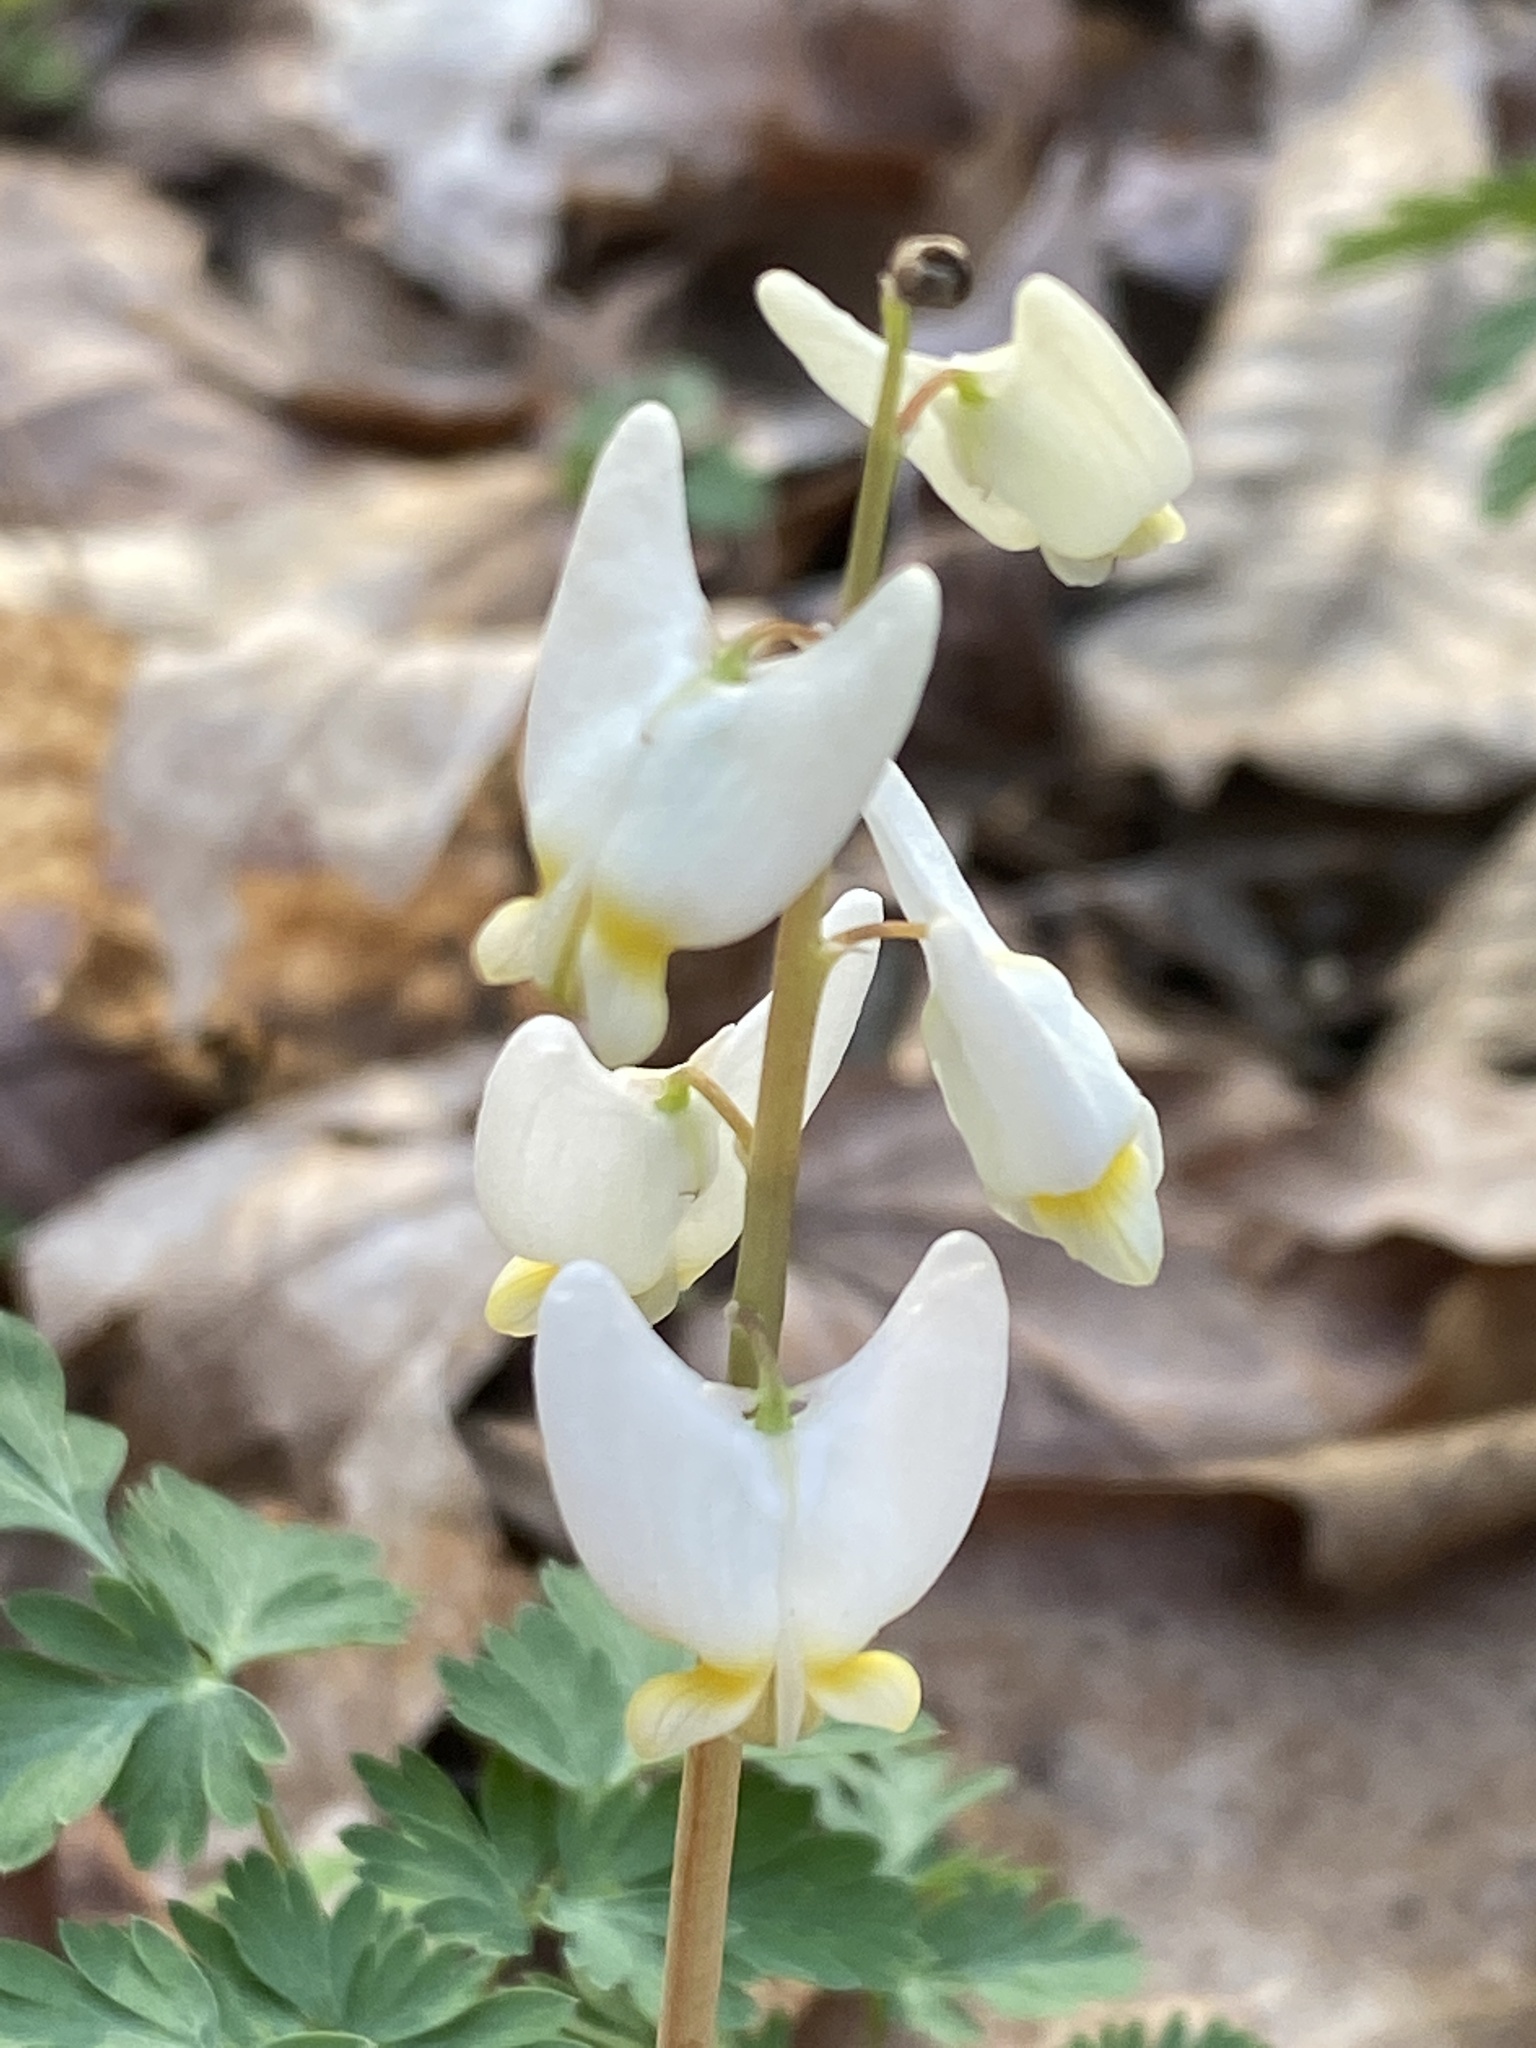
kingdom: Plantae
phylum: Tracheophyta
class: Magnoliopsida
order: Ranunculales
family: Papaveraceae
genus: Dicentra
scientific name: Dicentra cucullaria
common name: Dutchman's breeches
